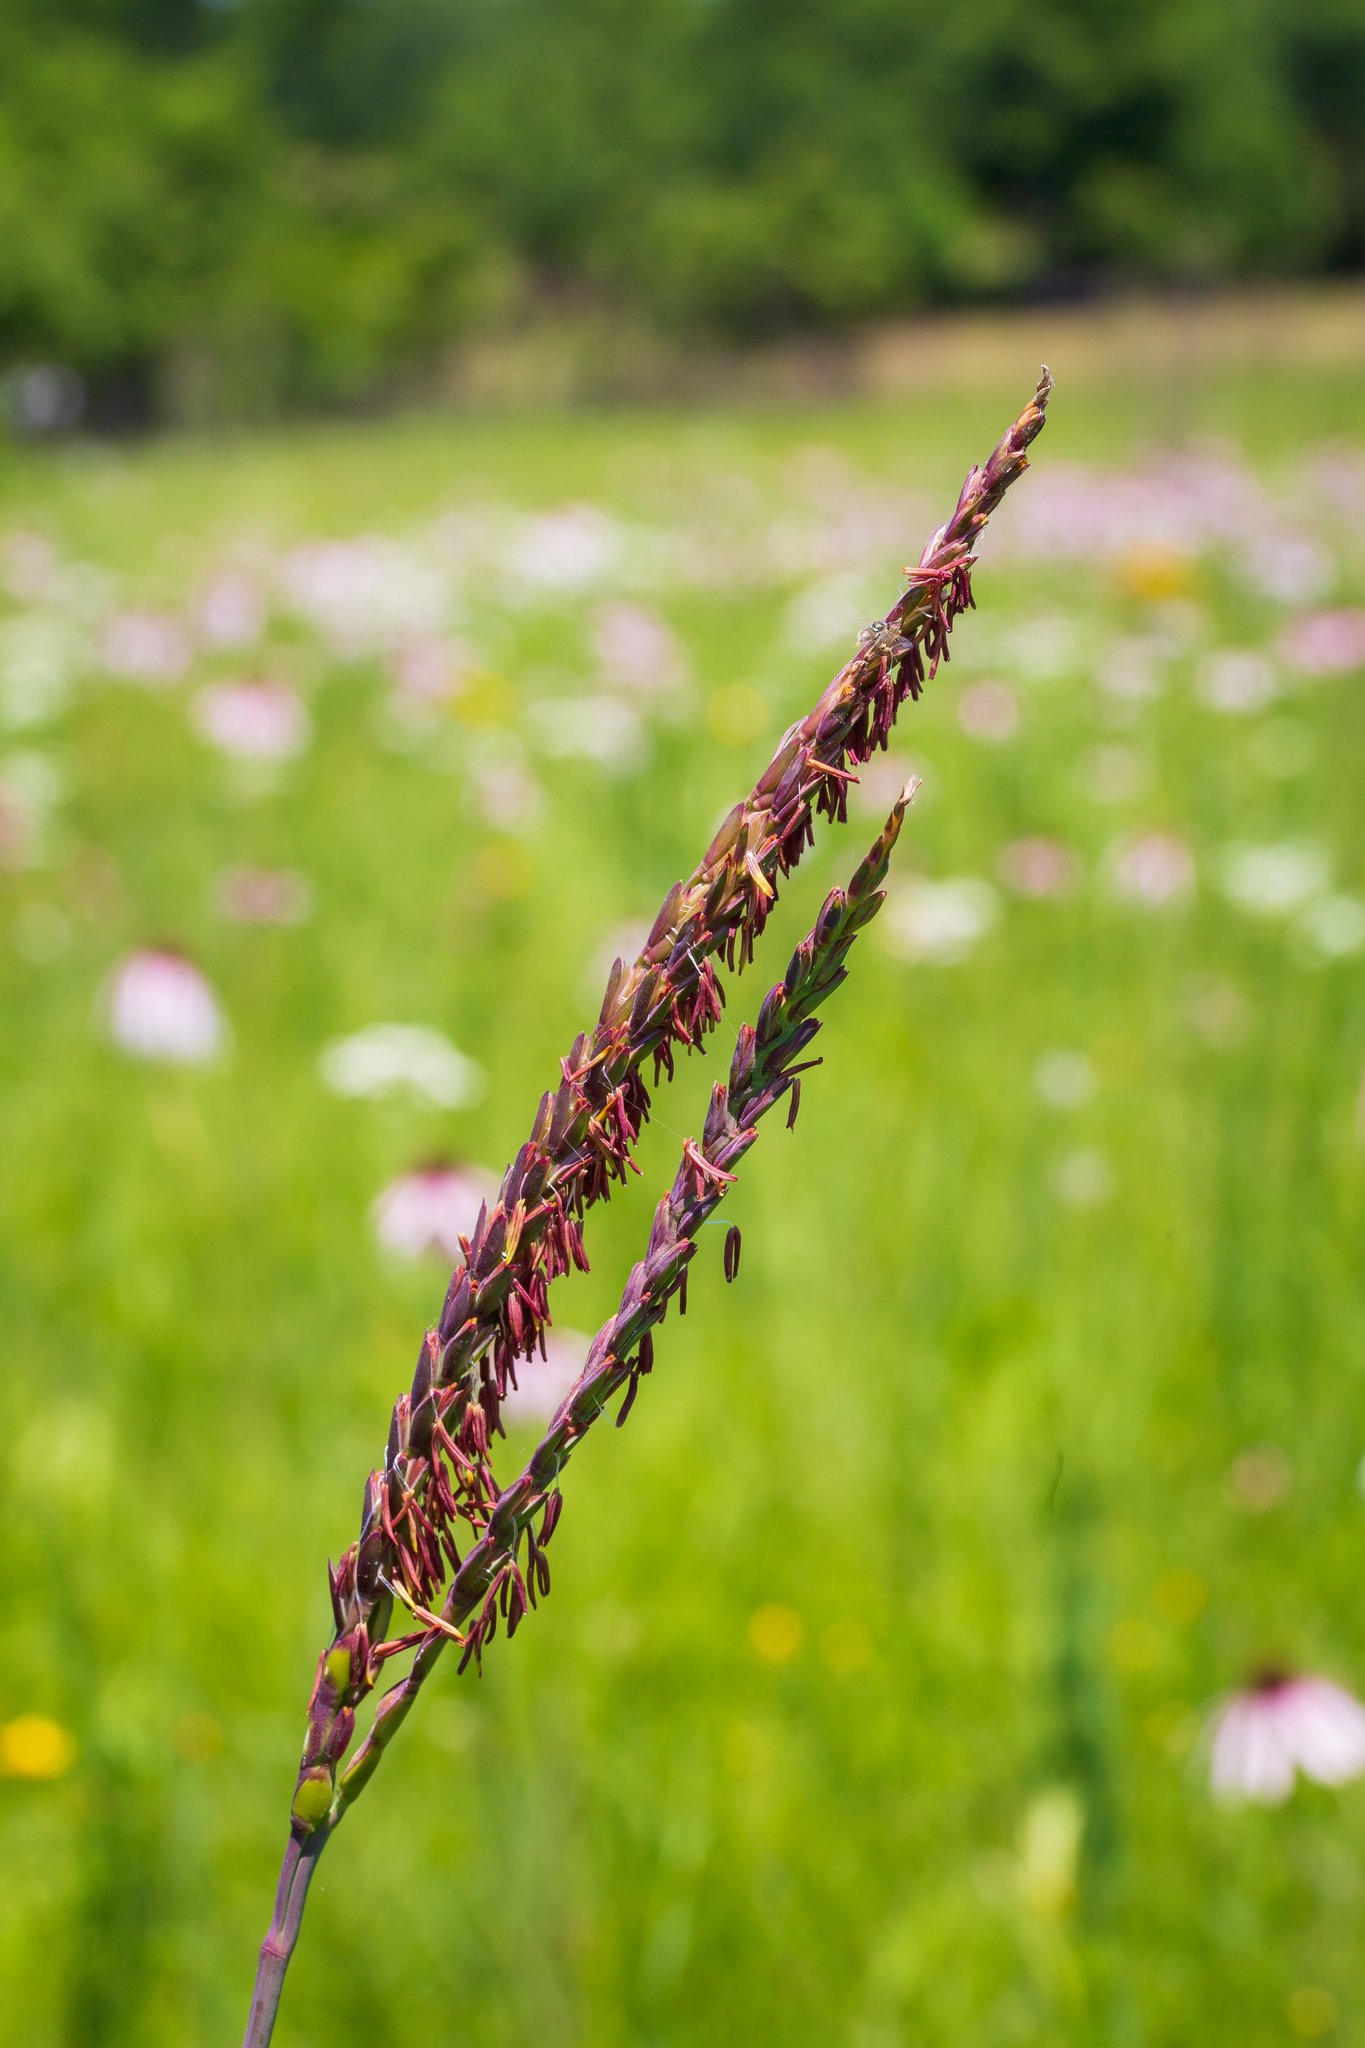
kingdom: Plantae
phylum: Tracheophyta
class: Liliopsida
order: Poales
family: Poaceae
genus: Tripsacum
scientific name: Tripsacum dactyloides
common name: Buffalo-grass
